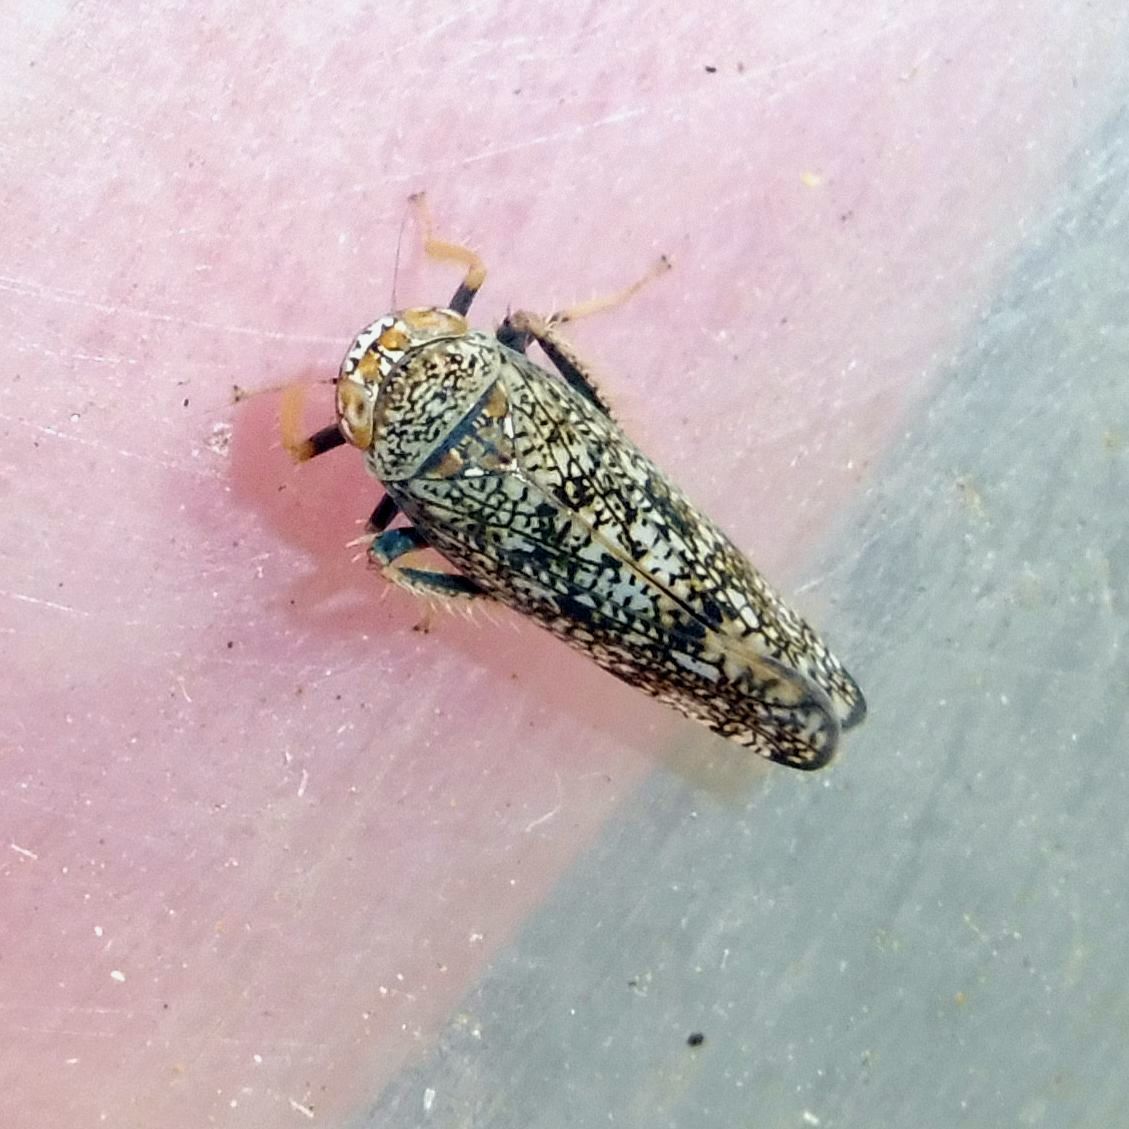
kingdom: Animalia
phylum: Arthropoda
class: Insecta
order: Hemiptera
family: Cicadellidae
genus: Orientus
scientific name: Orientus ishidae
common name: Japanese leafhopper
